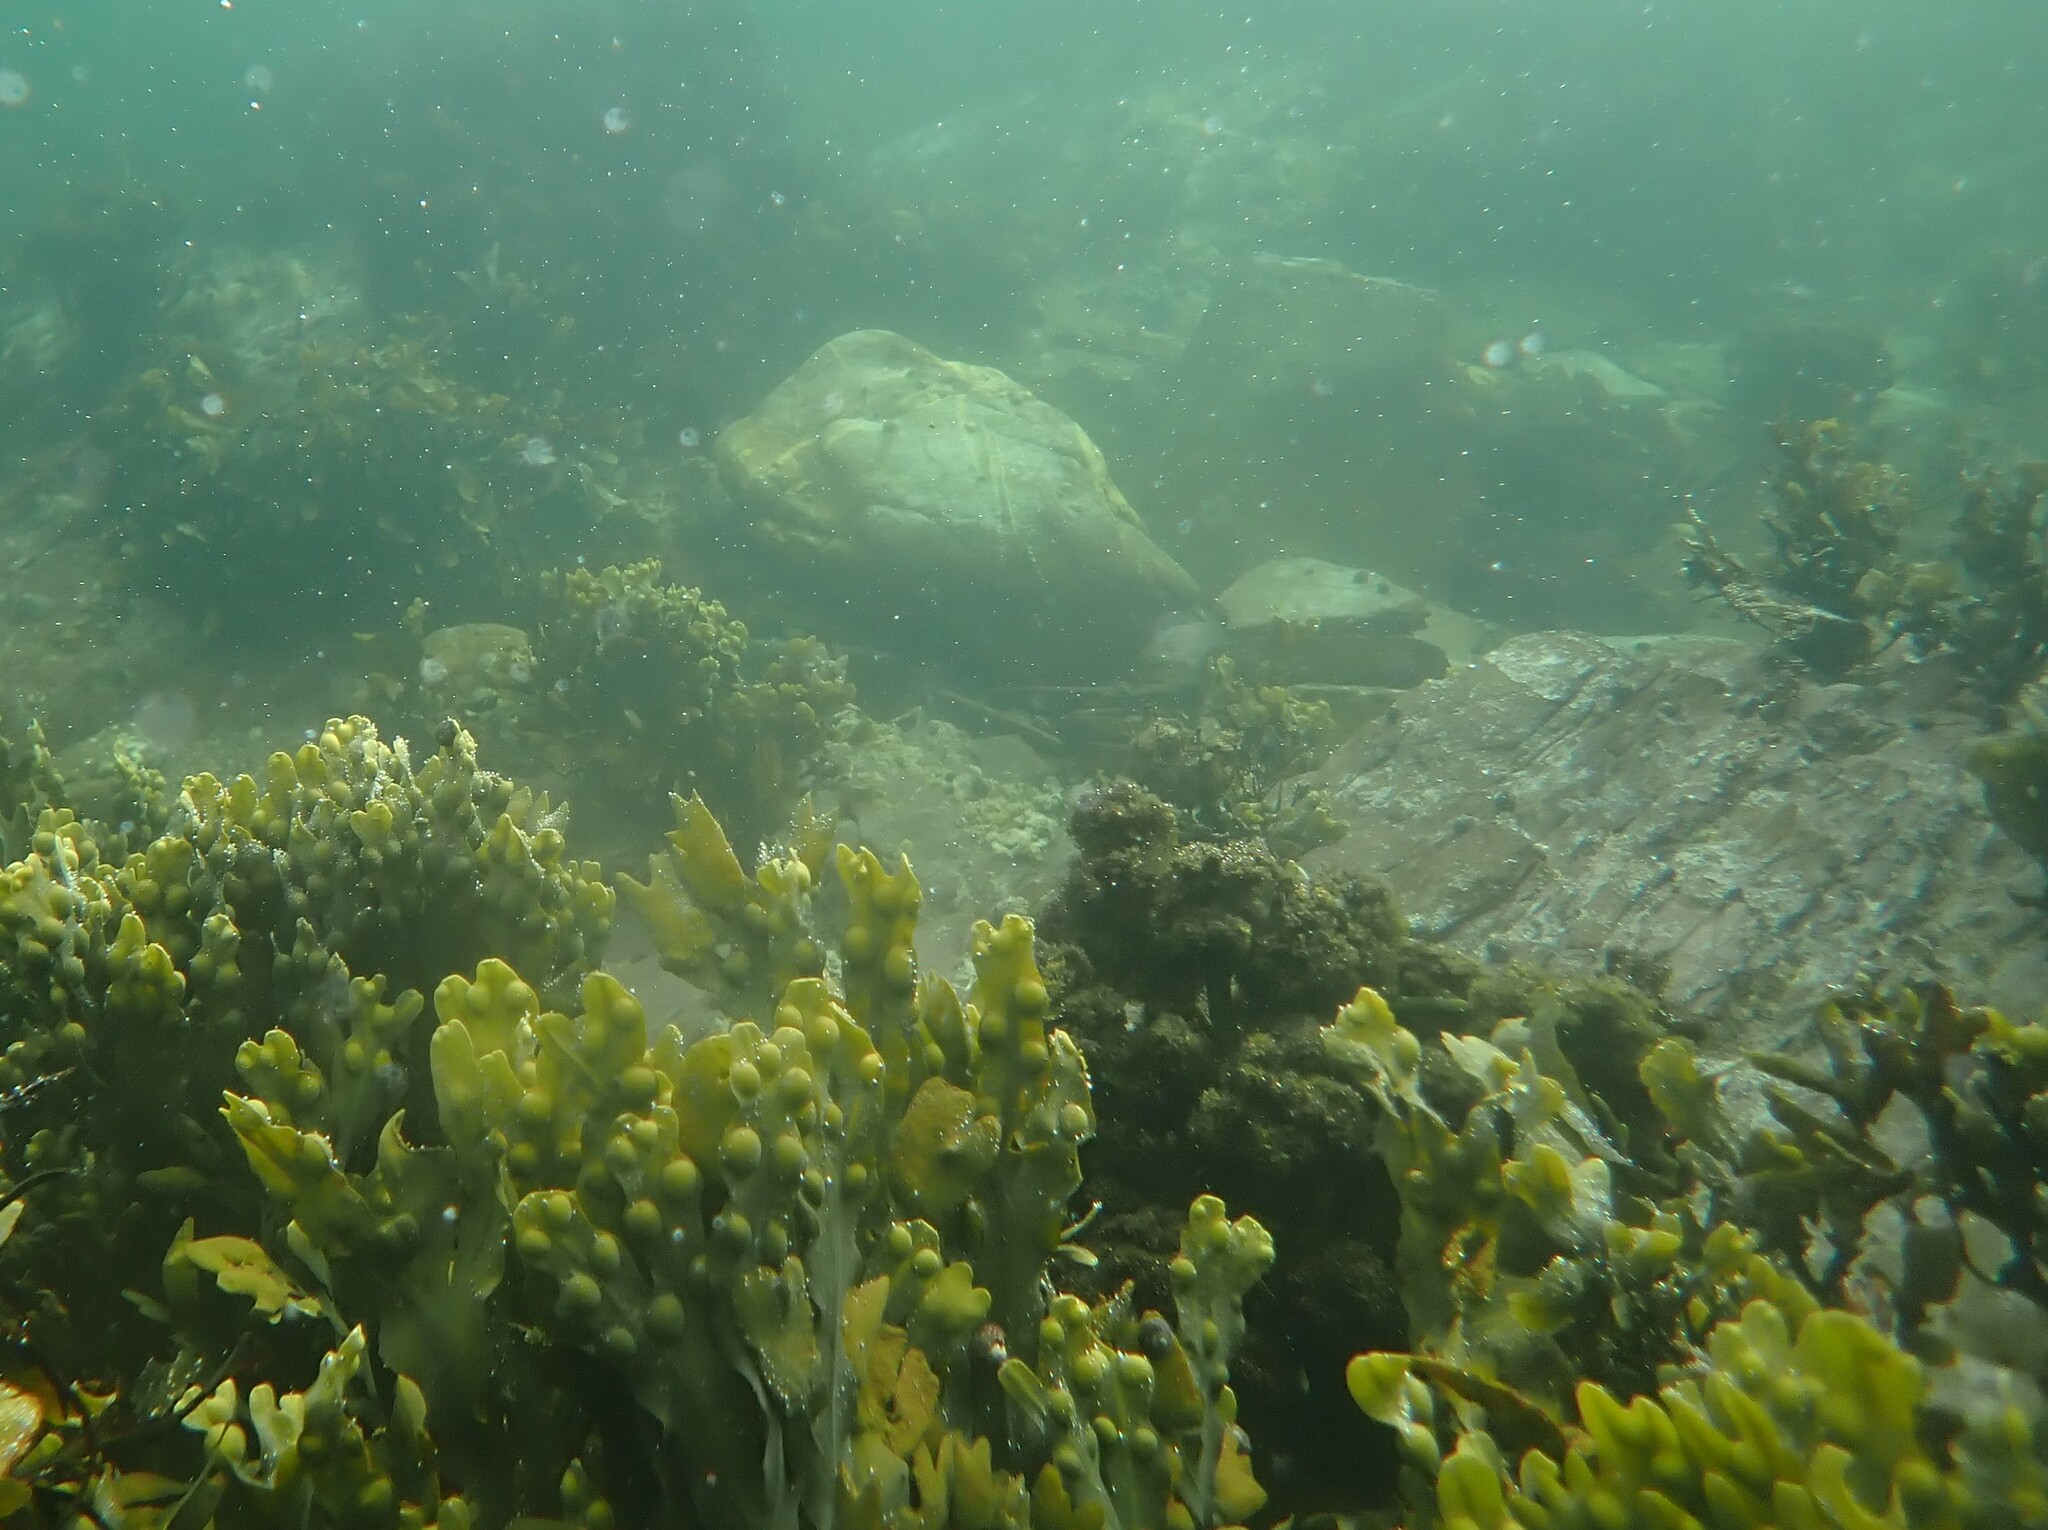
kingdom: Chromista
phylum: Ochrophyta
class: Phaeophyceae
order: Fucales
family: Fucaceae
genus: Fucus
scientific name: Fucus vesiculosus
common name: Bladder wrack
